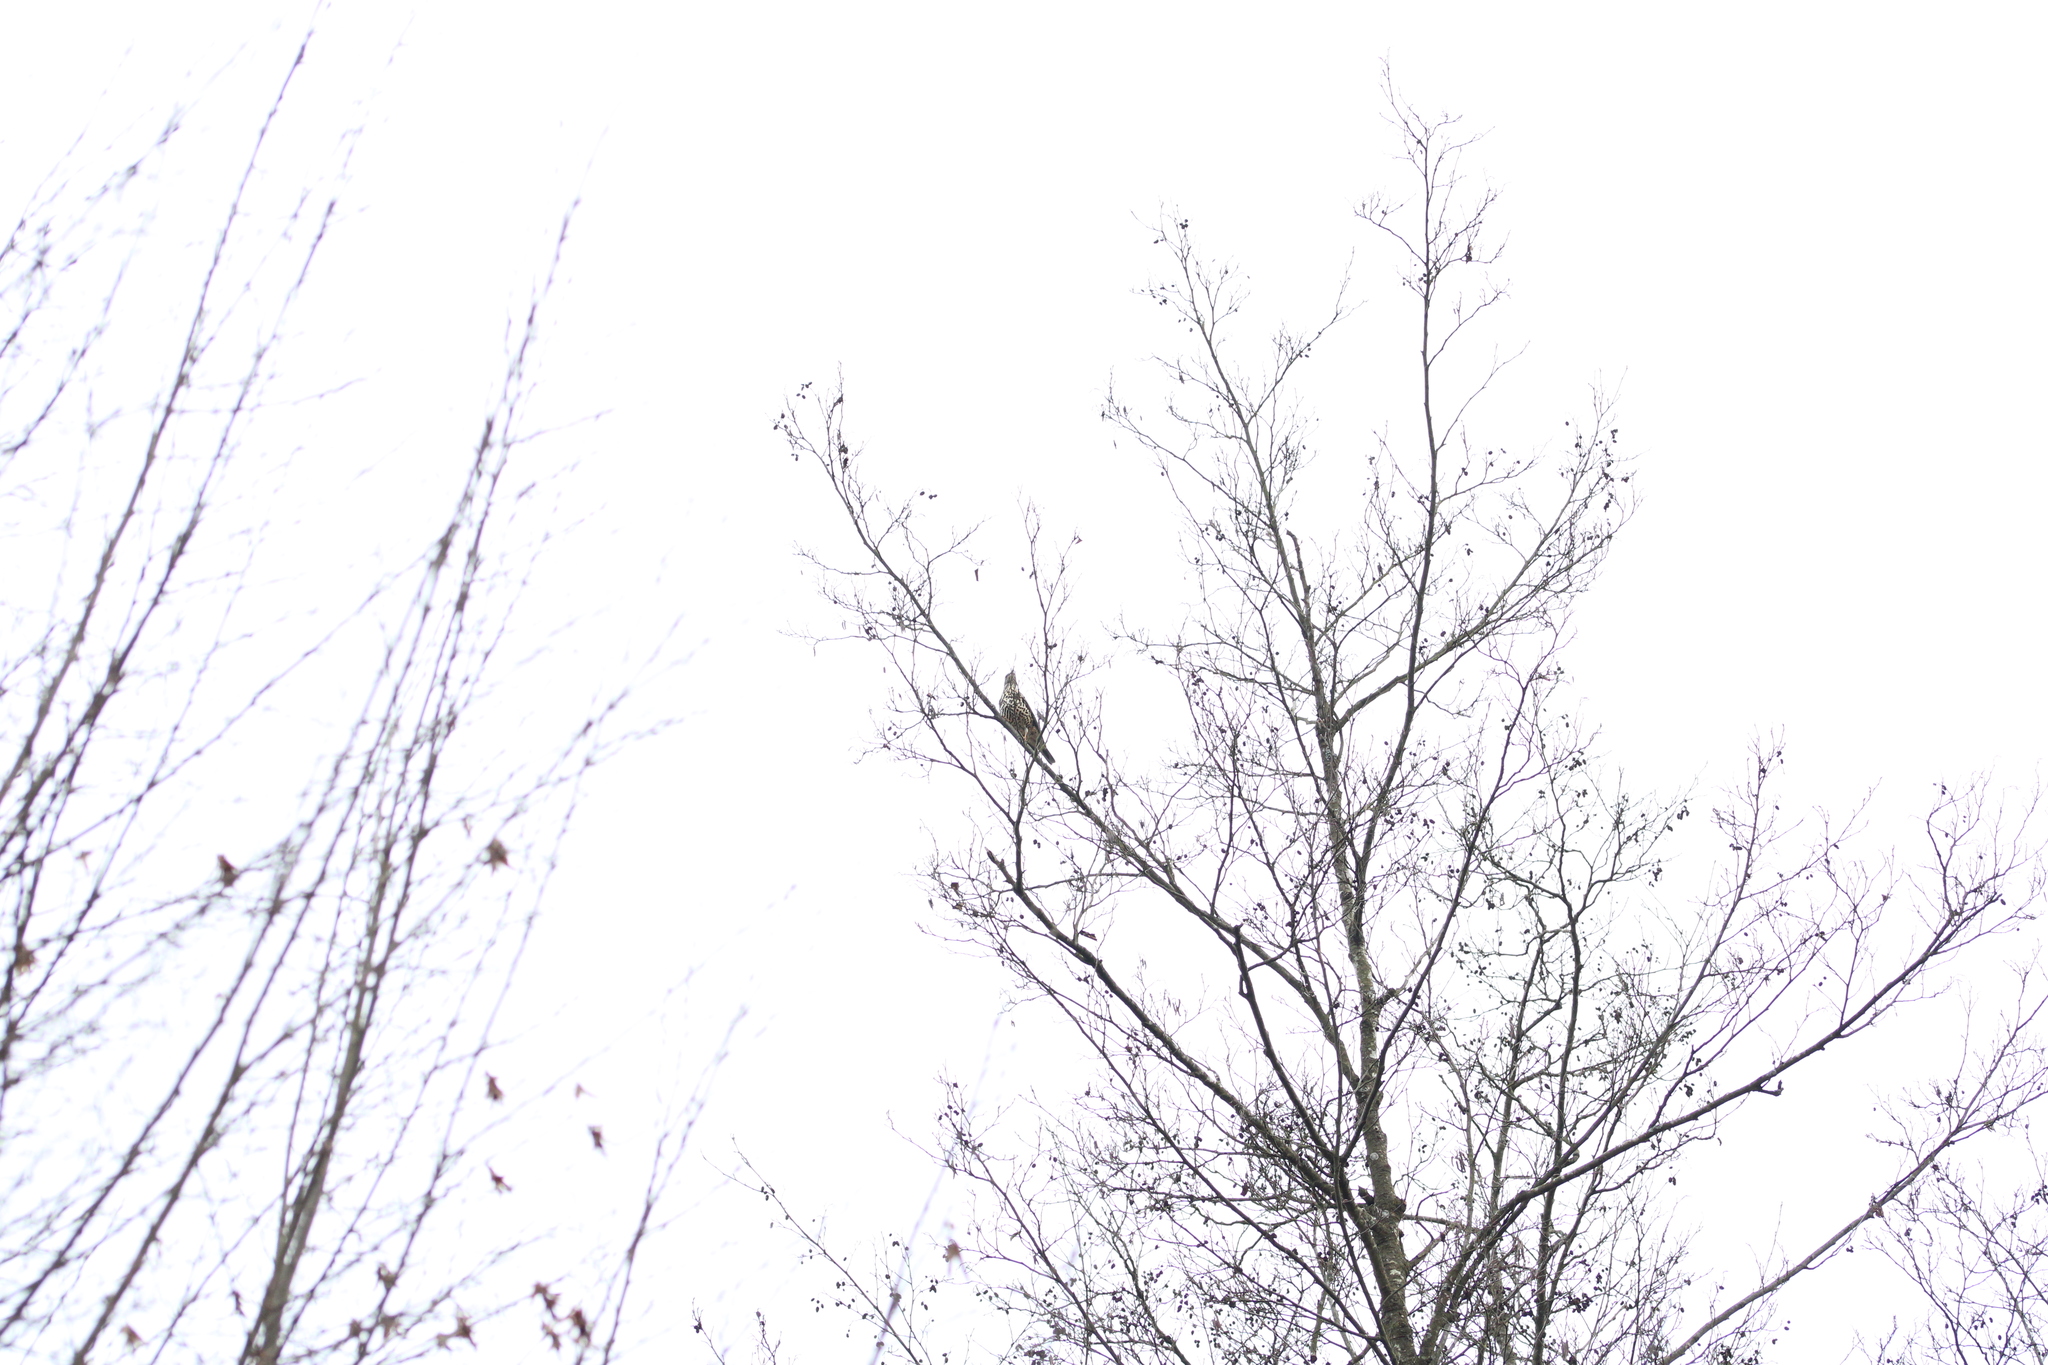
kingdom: Animalia
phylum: Chordata
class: Aves
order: Passeriformes
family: Turdidae
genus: Turdus
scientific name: Turdus viscivorus
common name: Mistle thrush
